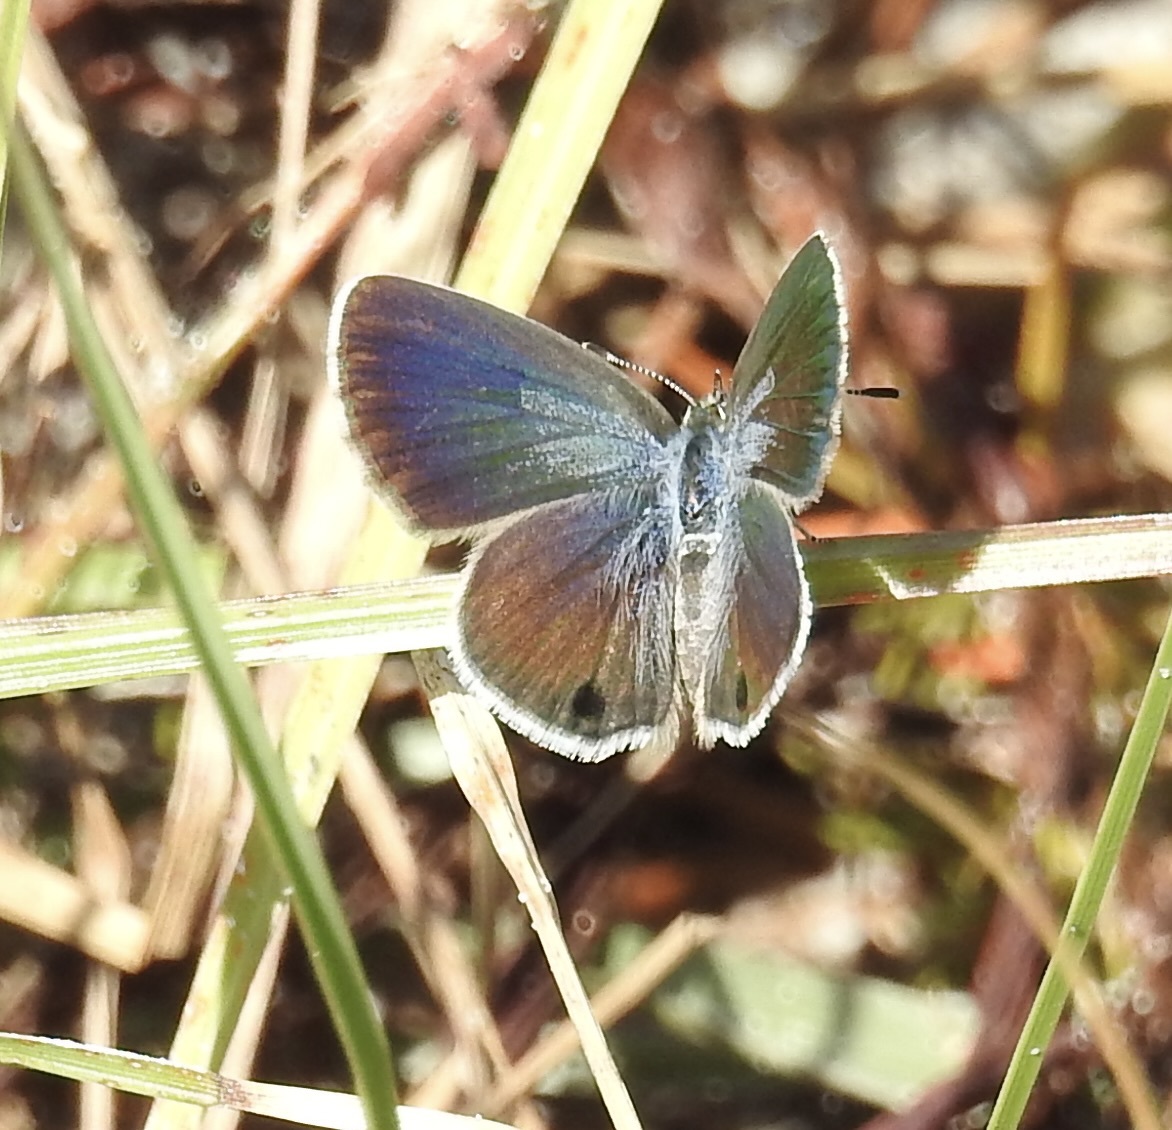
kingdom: Animalia
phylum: Arthropoda
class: Insecta
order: Lepidoptera
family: Lycaenidae
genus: Hemiargus
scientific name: Hemiargus ceraunus
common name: Ceraunus blue
